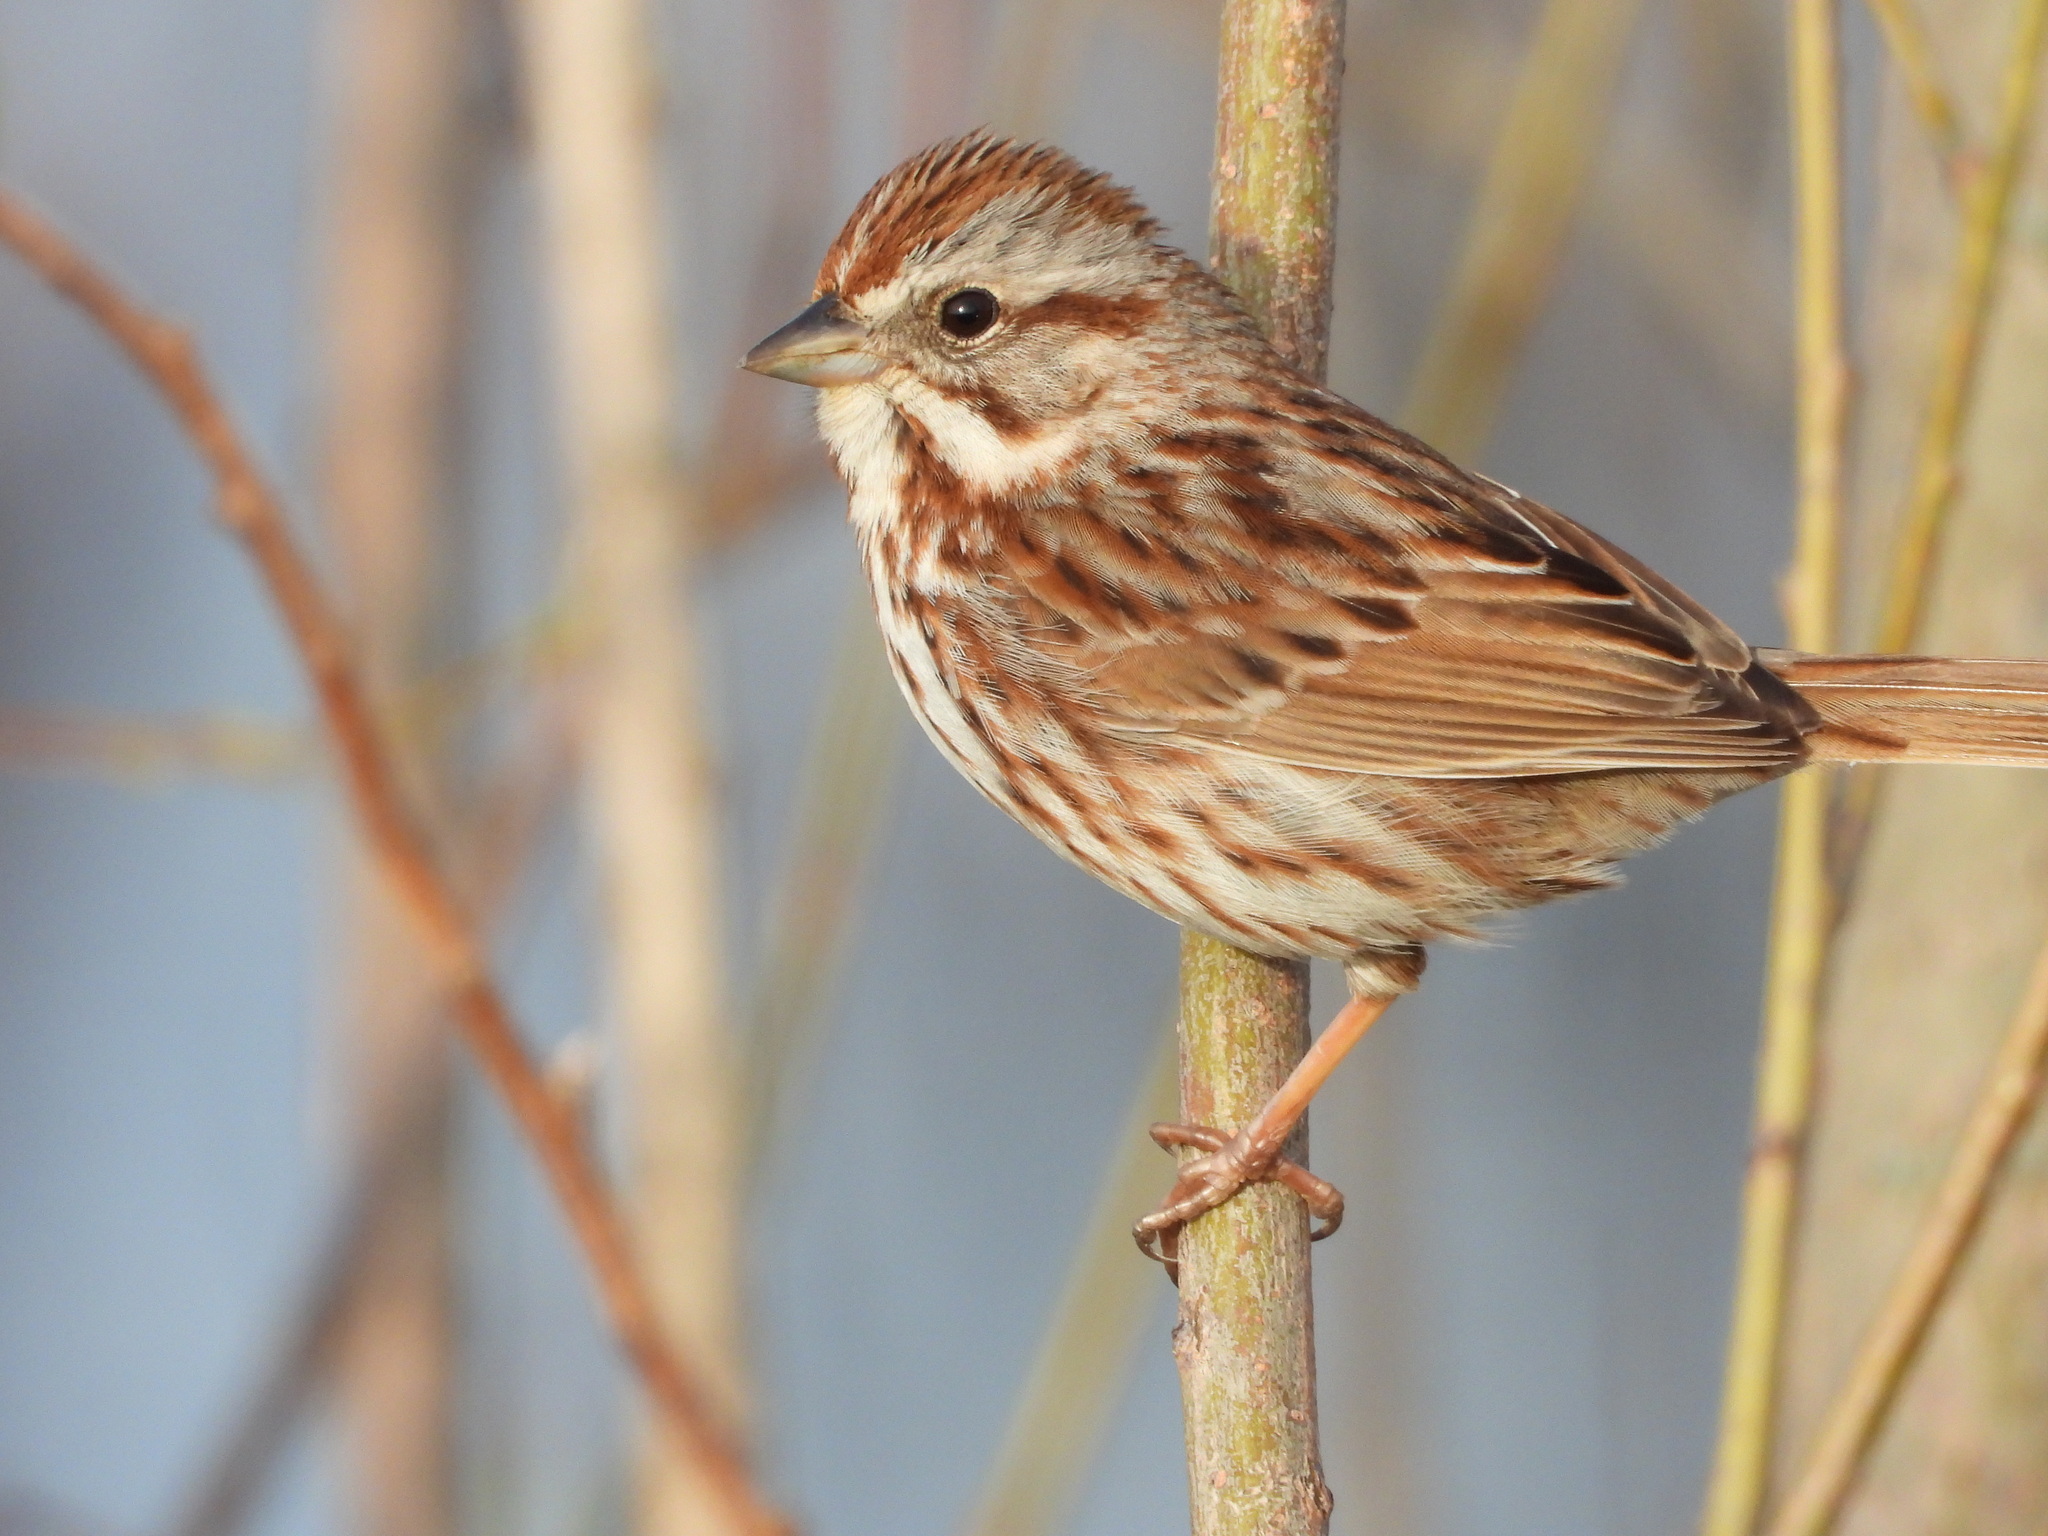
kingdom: Animalia
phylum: Chordata
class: Aves
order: Passeriformes
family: Passerellidae
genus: Melospiza
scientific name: Melospiza melodia
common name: Song sparrow
